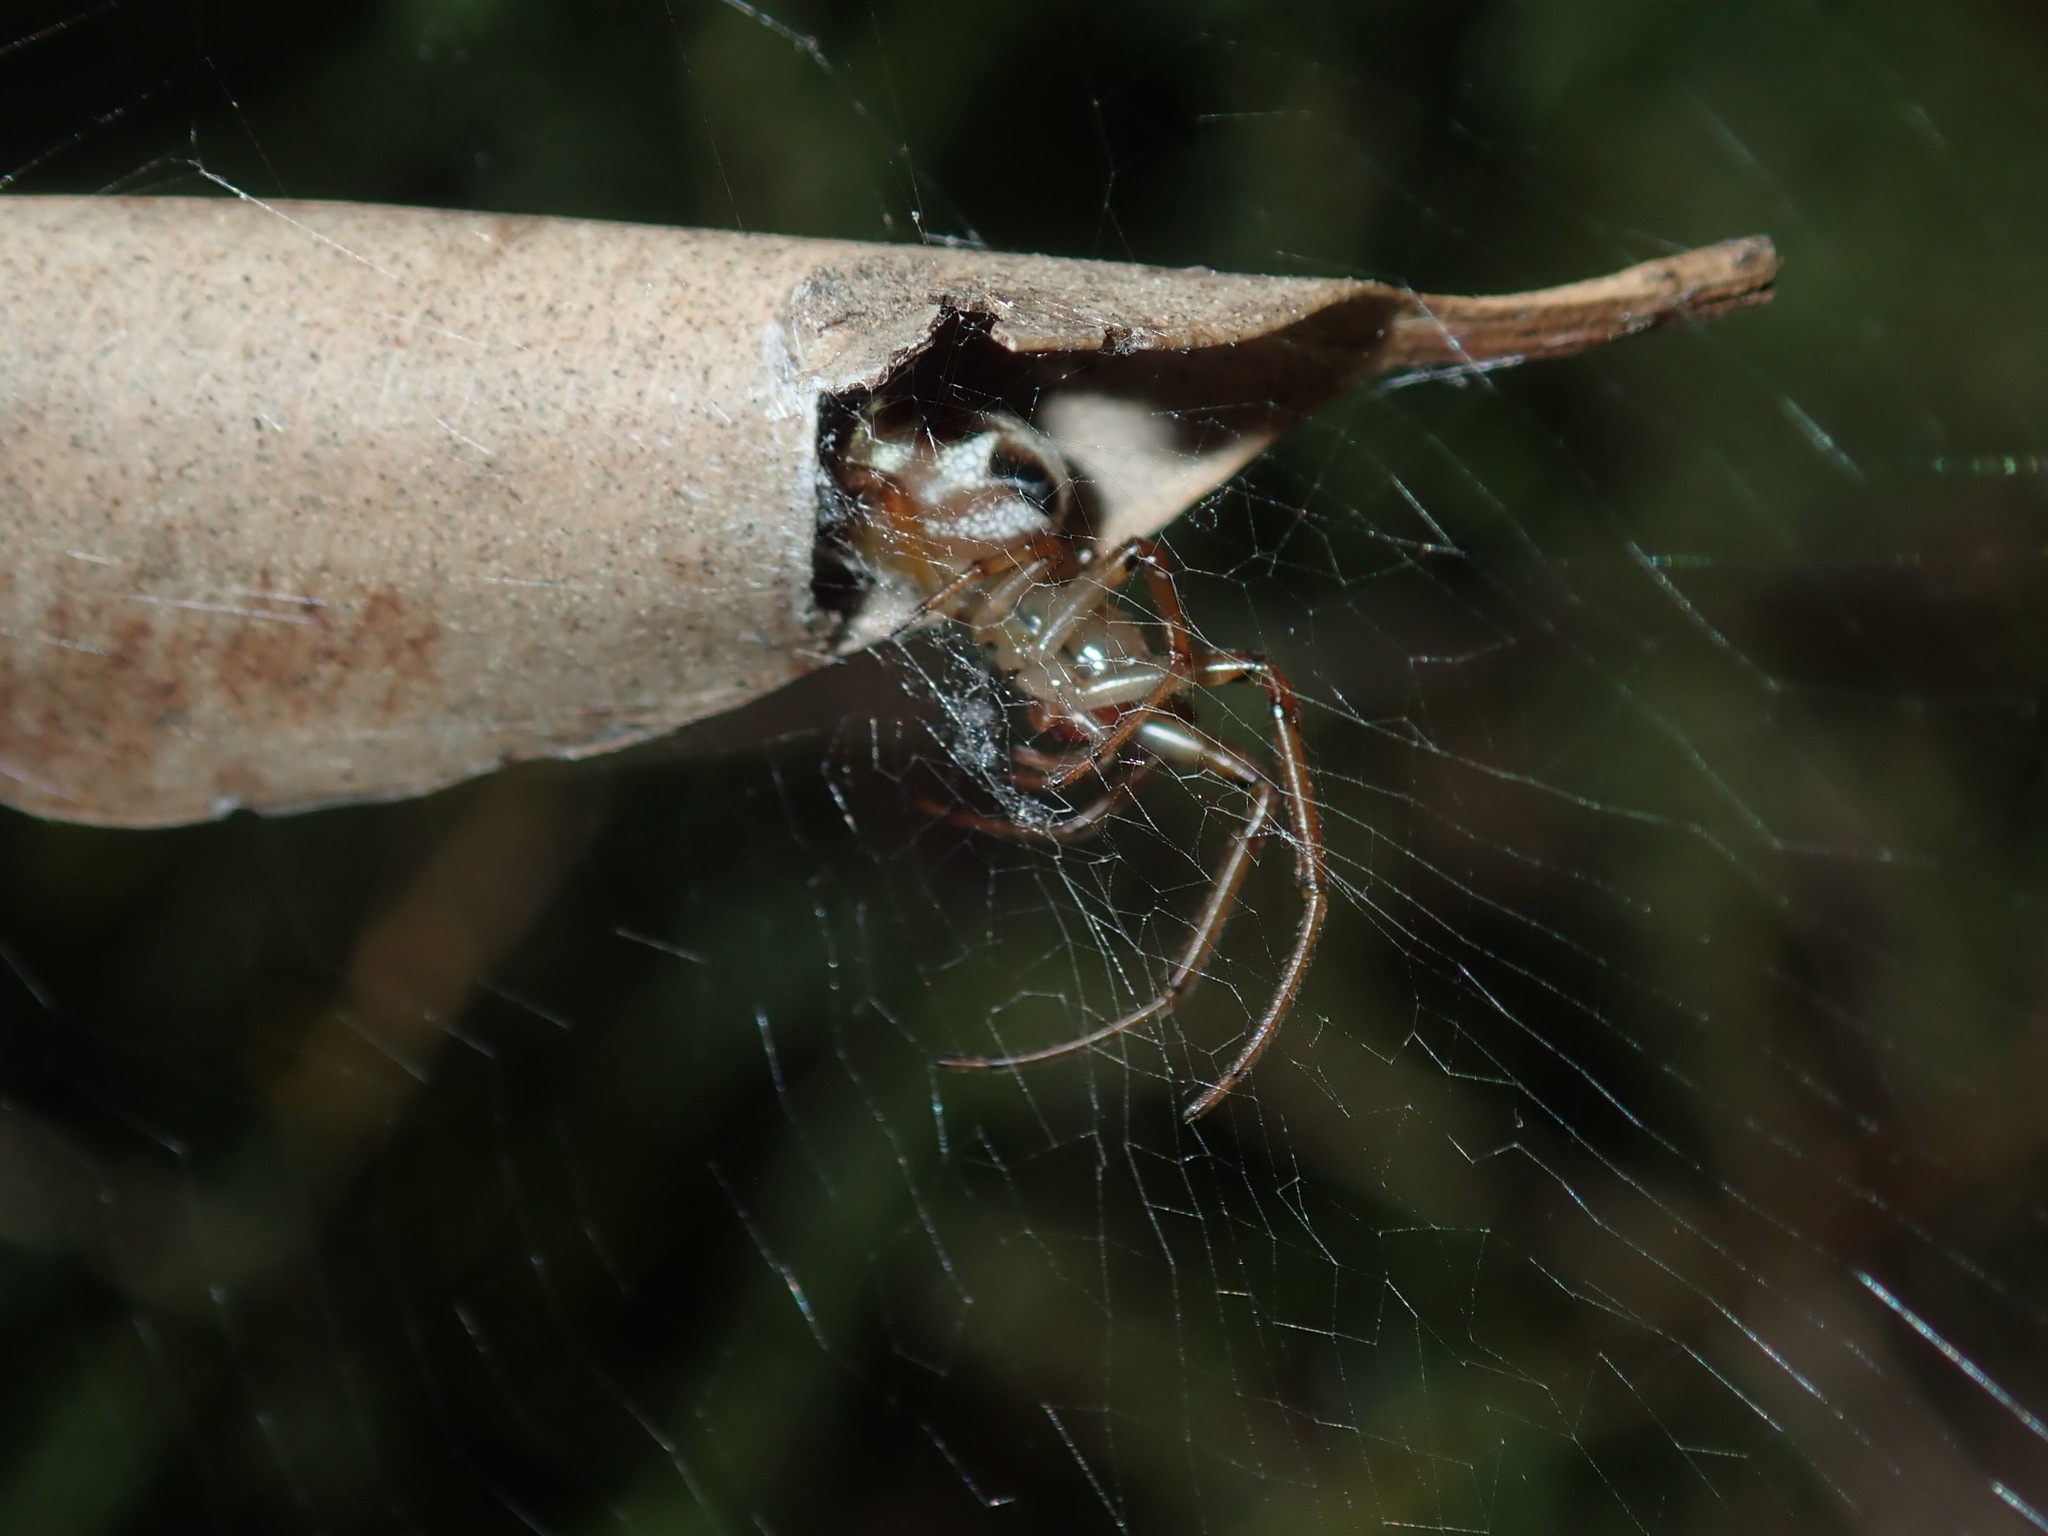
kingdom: Animalia
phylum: Arthropoda
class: Arachnida
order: Araneae
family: Araneidae
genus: Phonognatha
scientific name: Phonognatha graeffei
